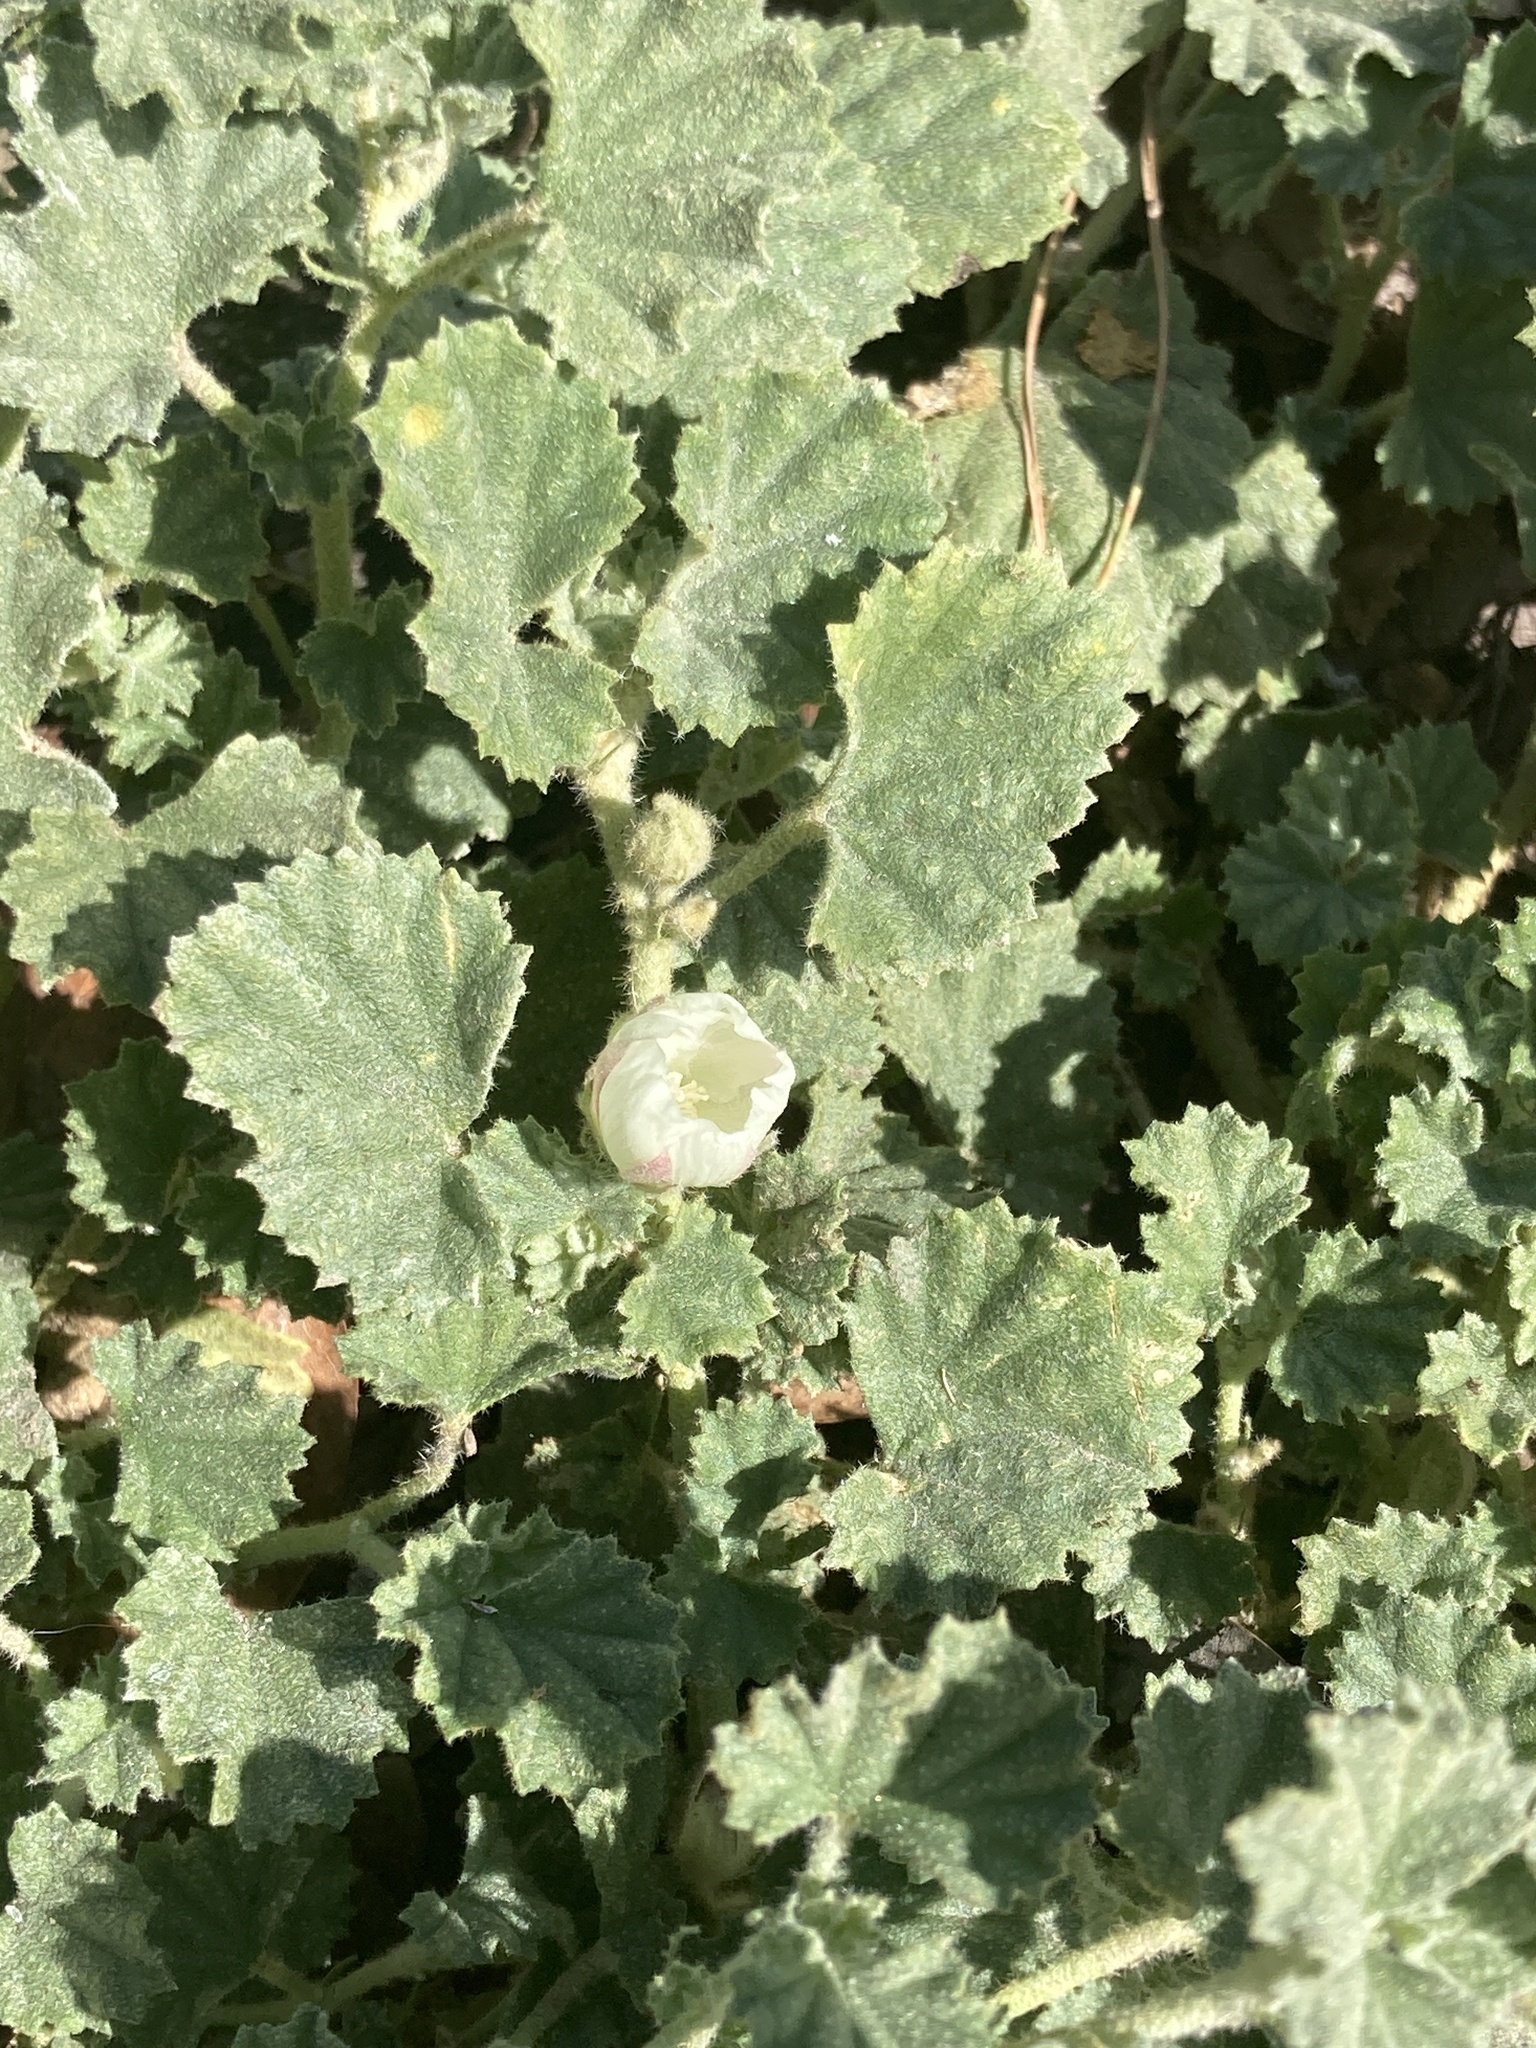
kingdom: Plantae
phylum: Tracheophyta
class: Magnoliopsida
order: Malvales
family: Malvaceae
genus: Malvella
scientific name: Malvella leprosa
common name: Alkali-mallow
